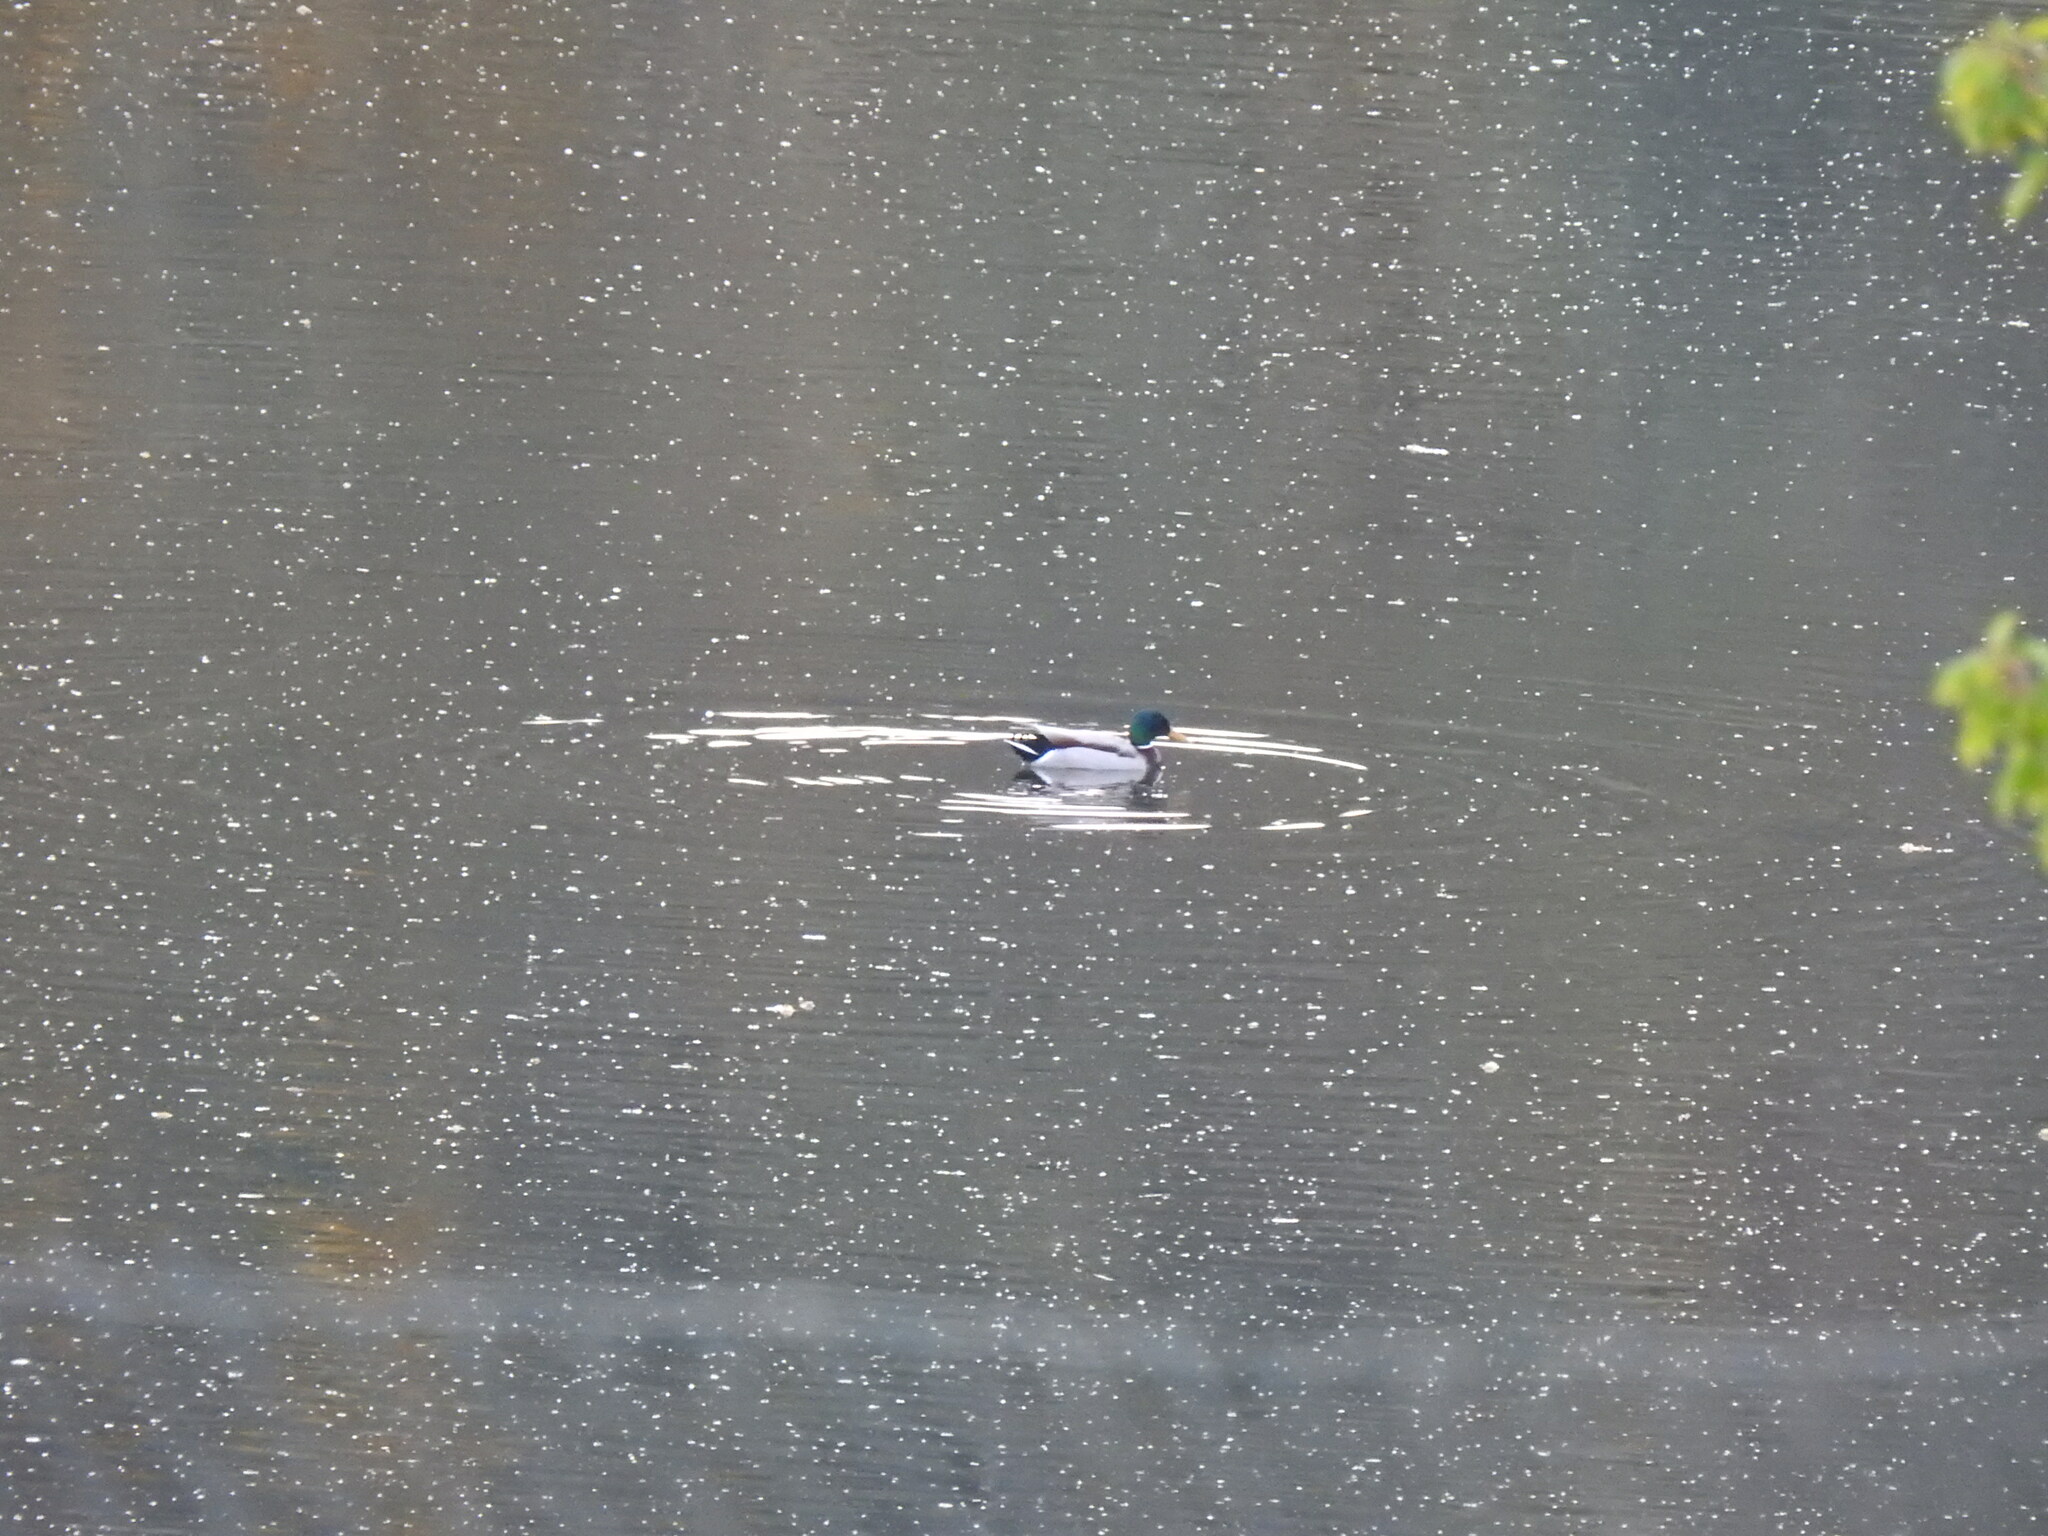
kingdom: Animalia
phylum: Chordata
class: Aves
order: Anseriformes
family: Anatidae
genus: Anas
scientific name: Anas platyrhynchos
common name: Mallard
